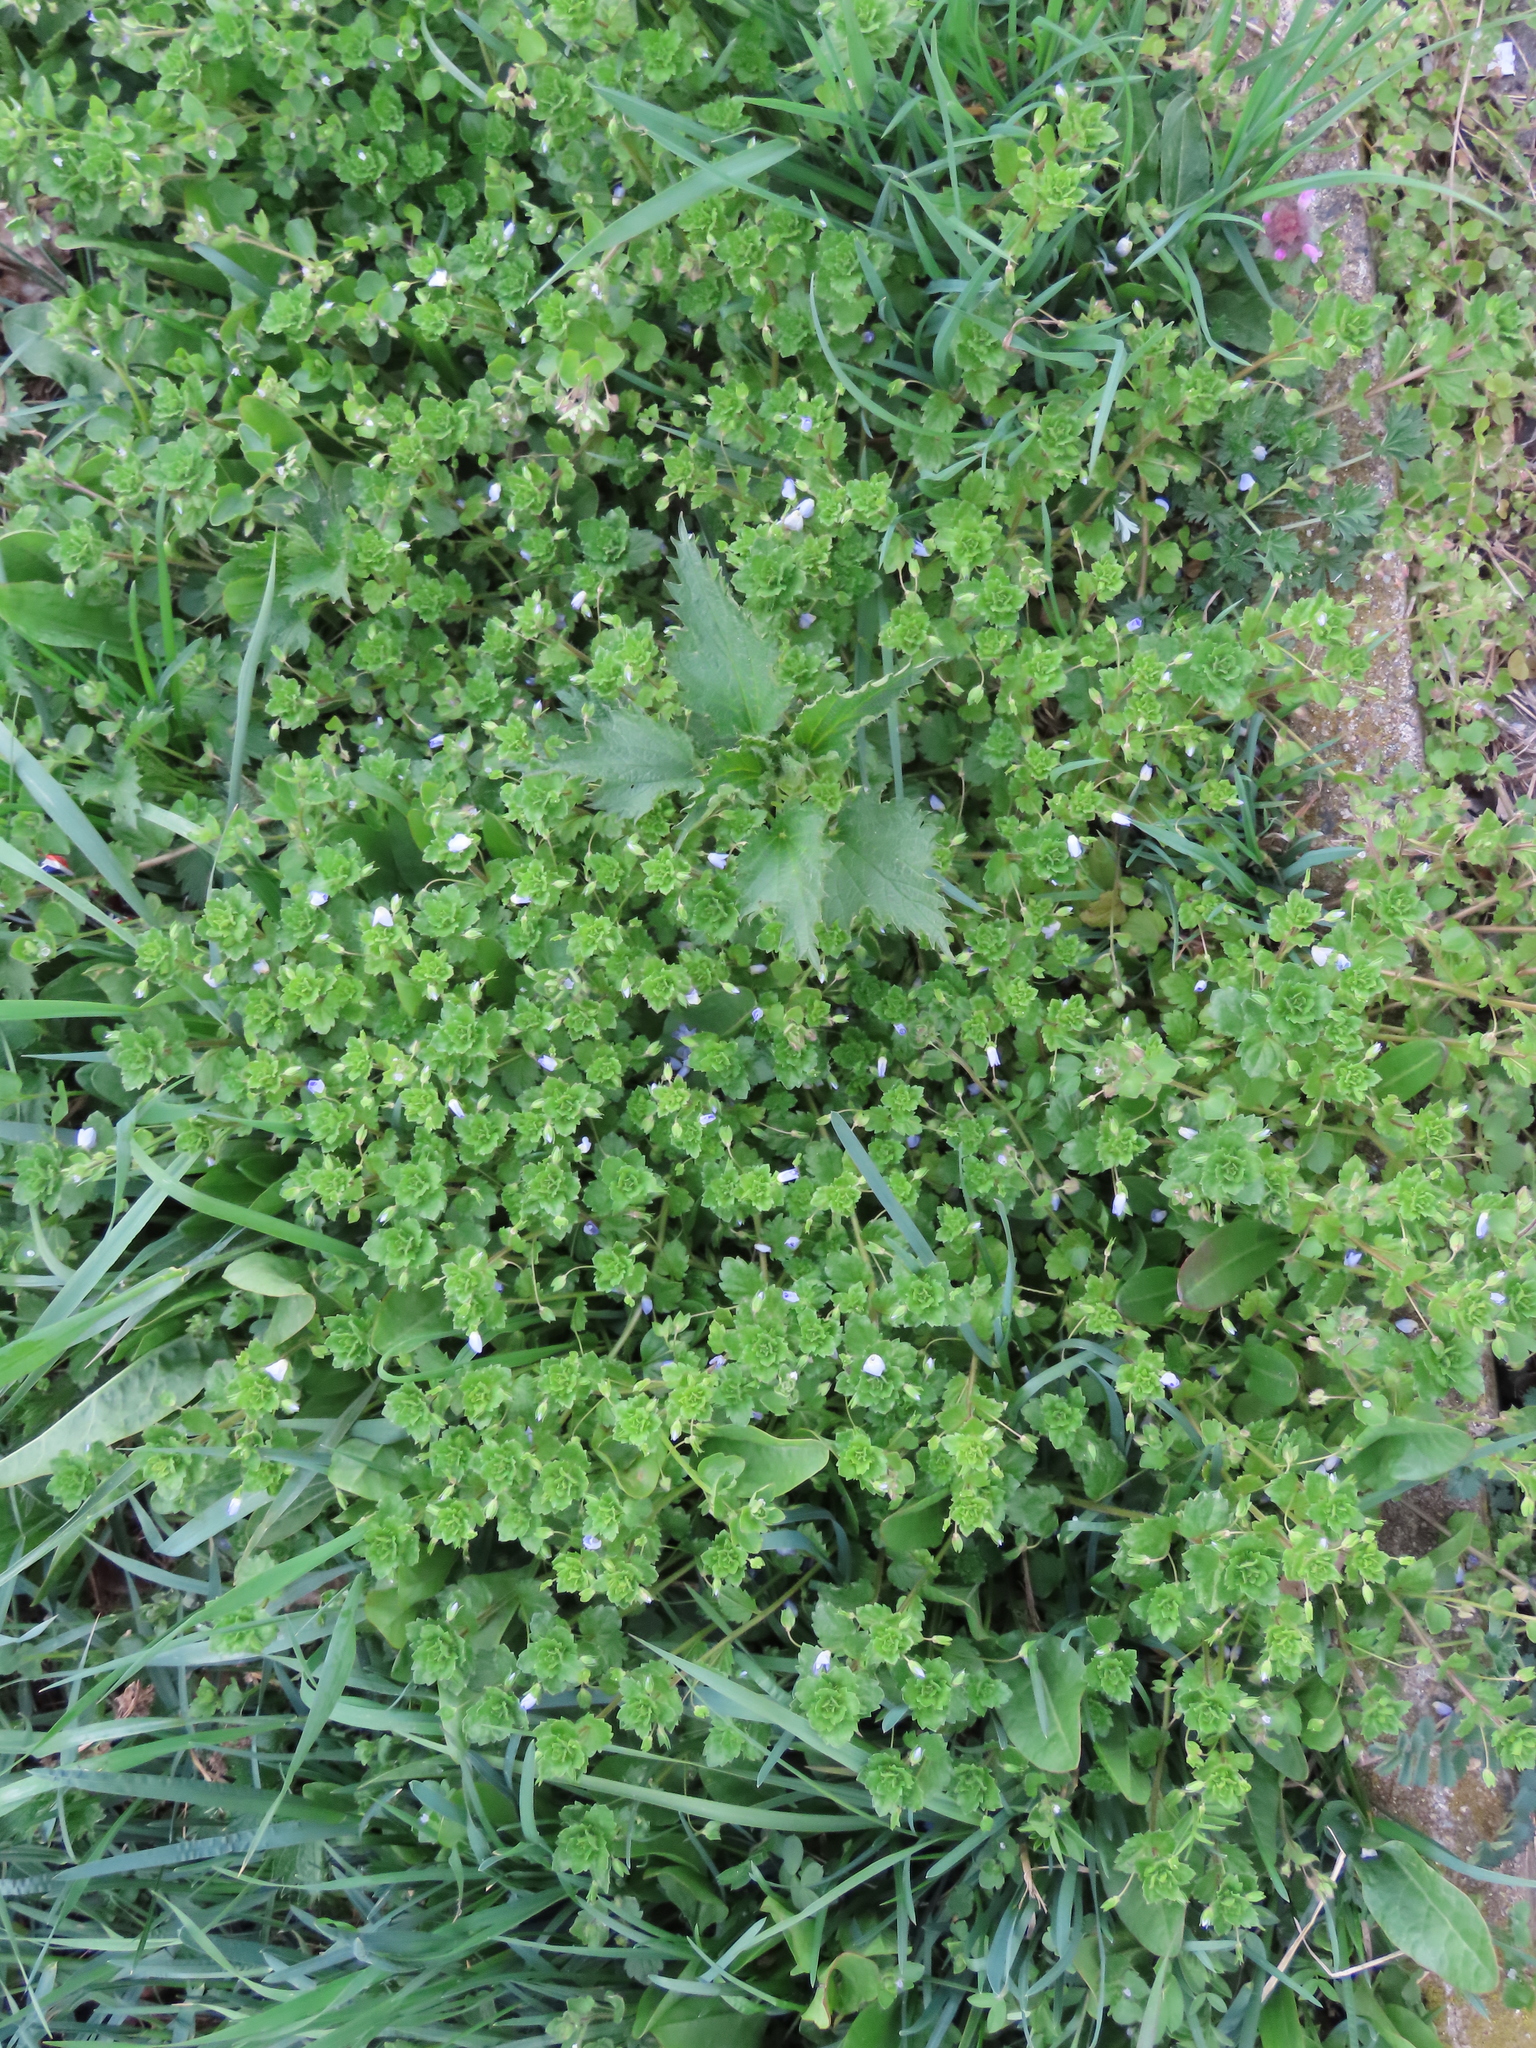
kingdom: Plantae
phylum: Tracheophyta
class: Magnoliopsida
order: Lamiales
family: Plantaginaceae
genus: Veronica
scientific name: Veronica persica
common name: Common field-speedwell
